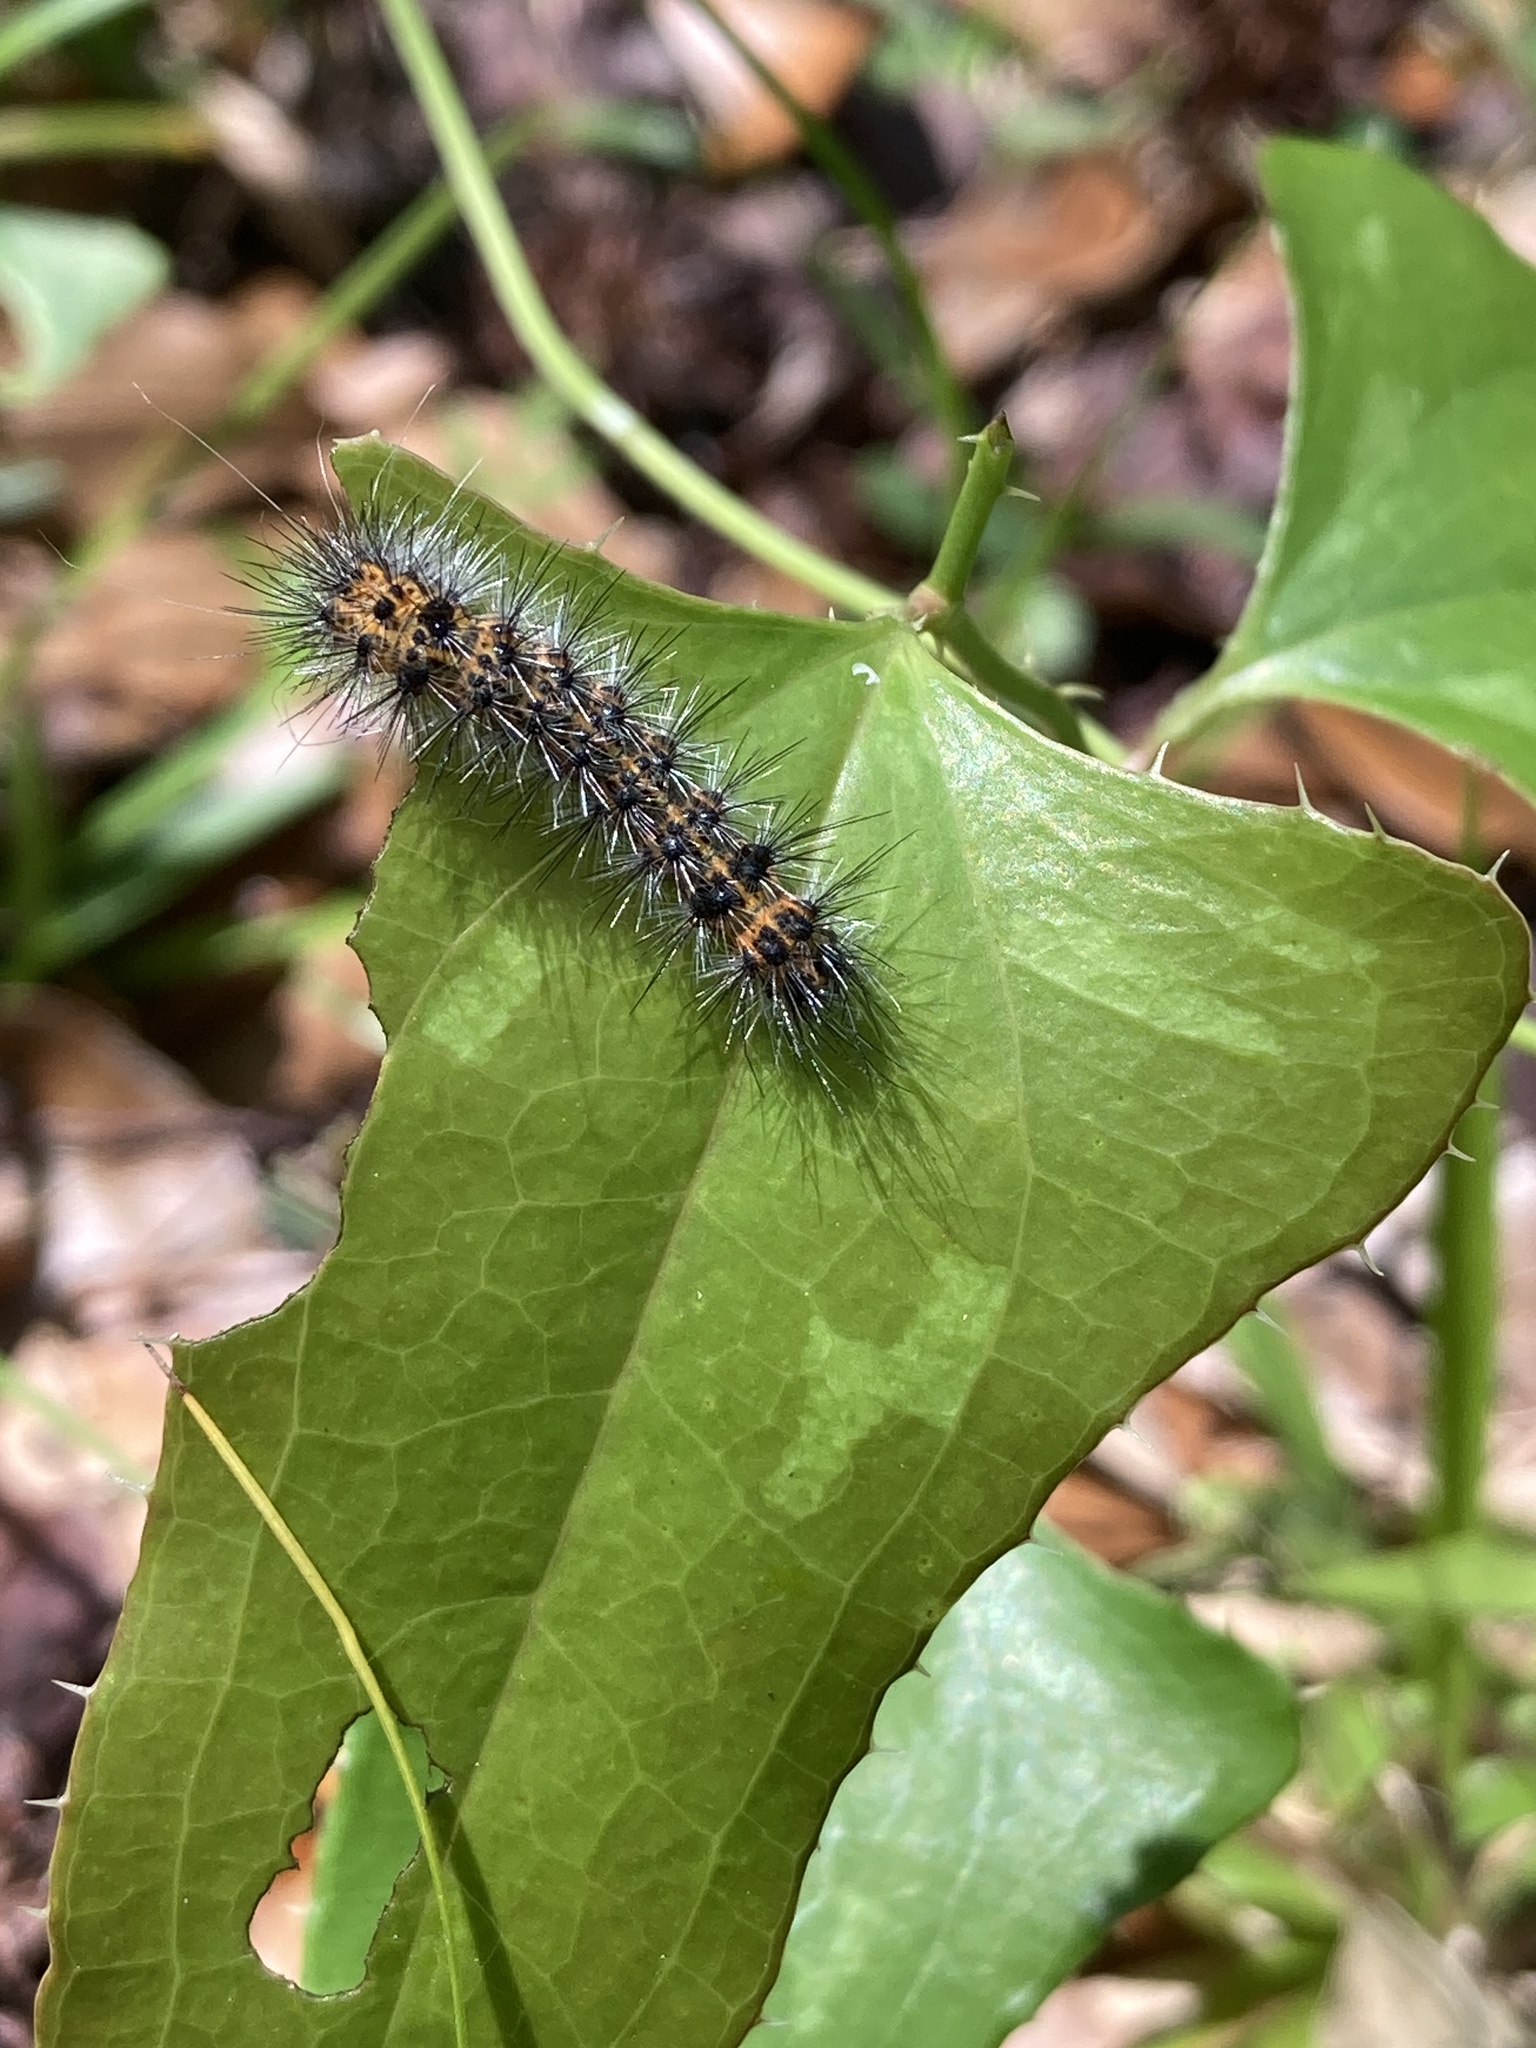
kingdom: Animalia
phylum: Arthropoda
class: Insecta
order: Lepidoptera
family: Erebidae
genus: Spilosoma
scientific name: Spilosoma dubia
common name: Dubious tiger moth
